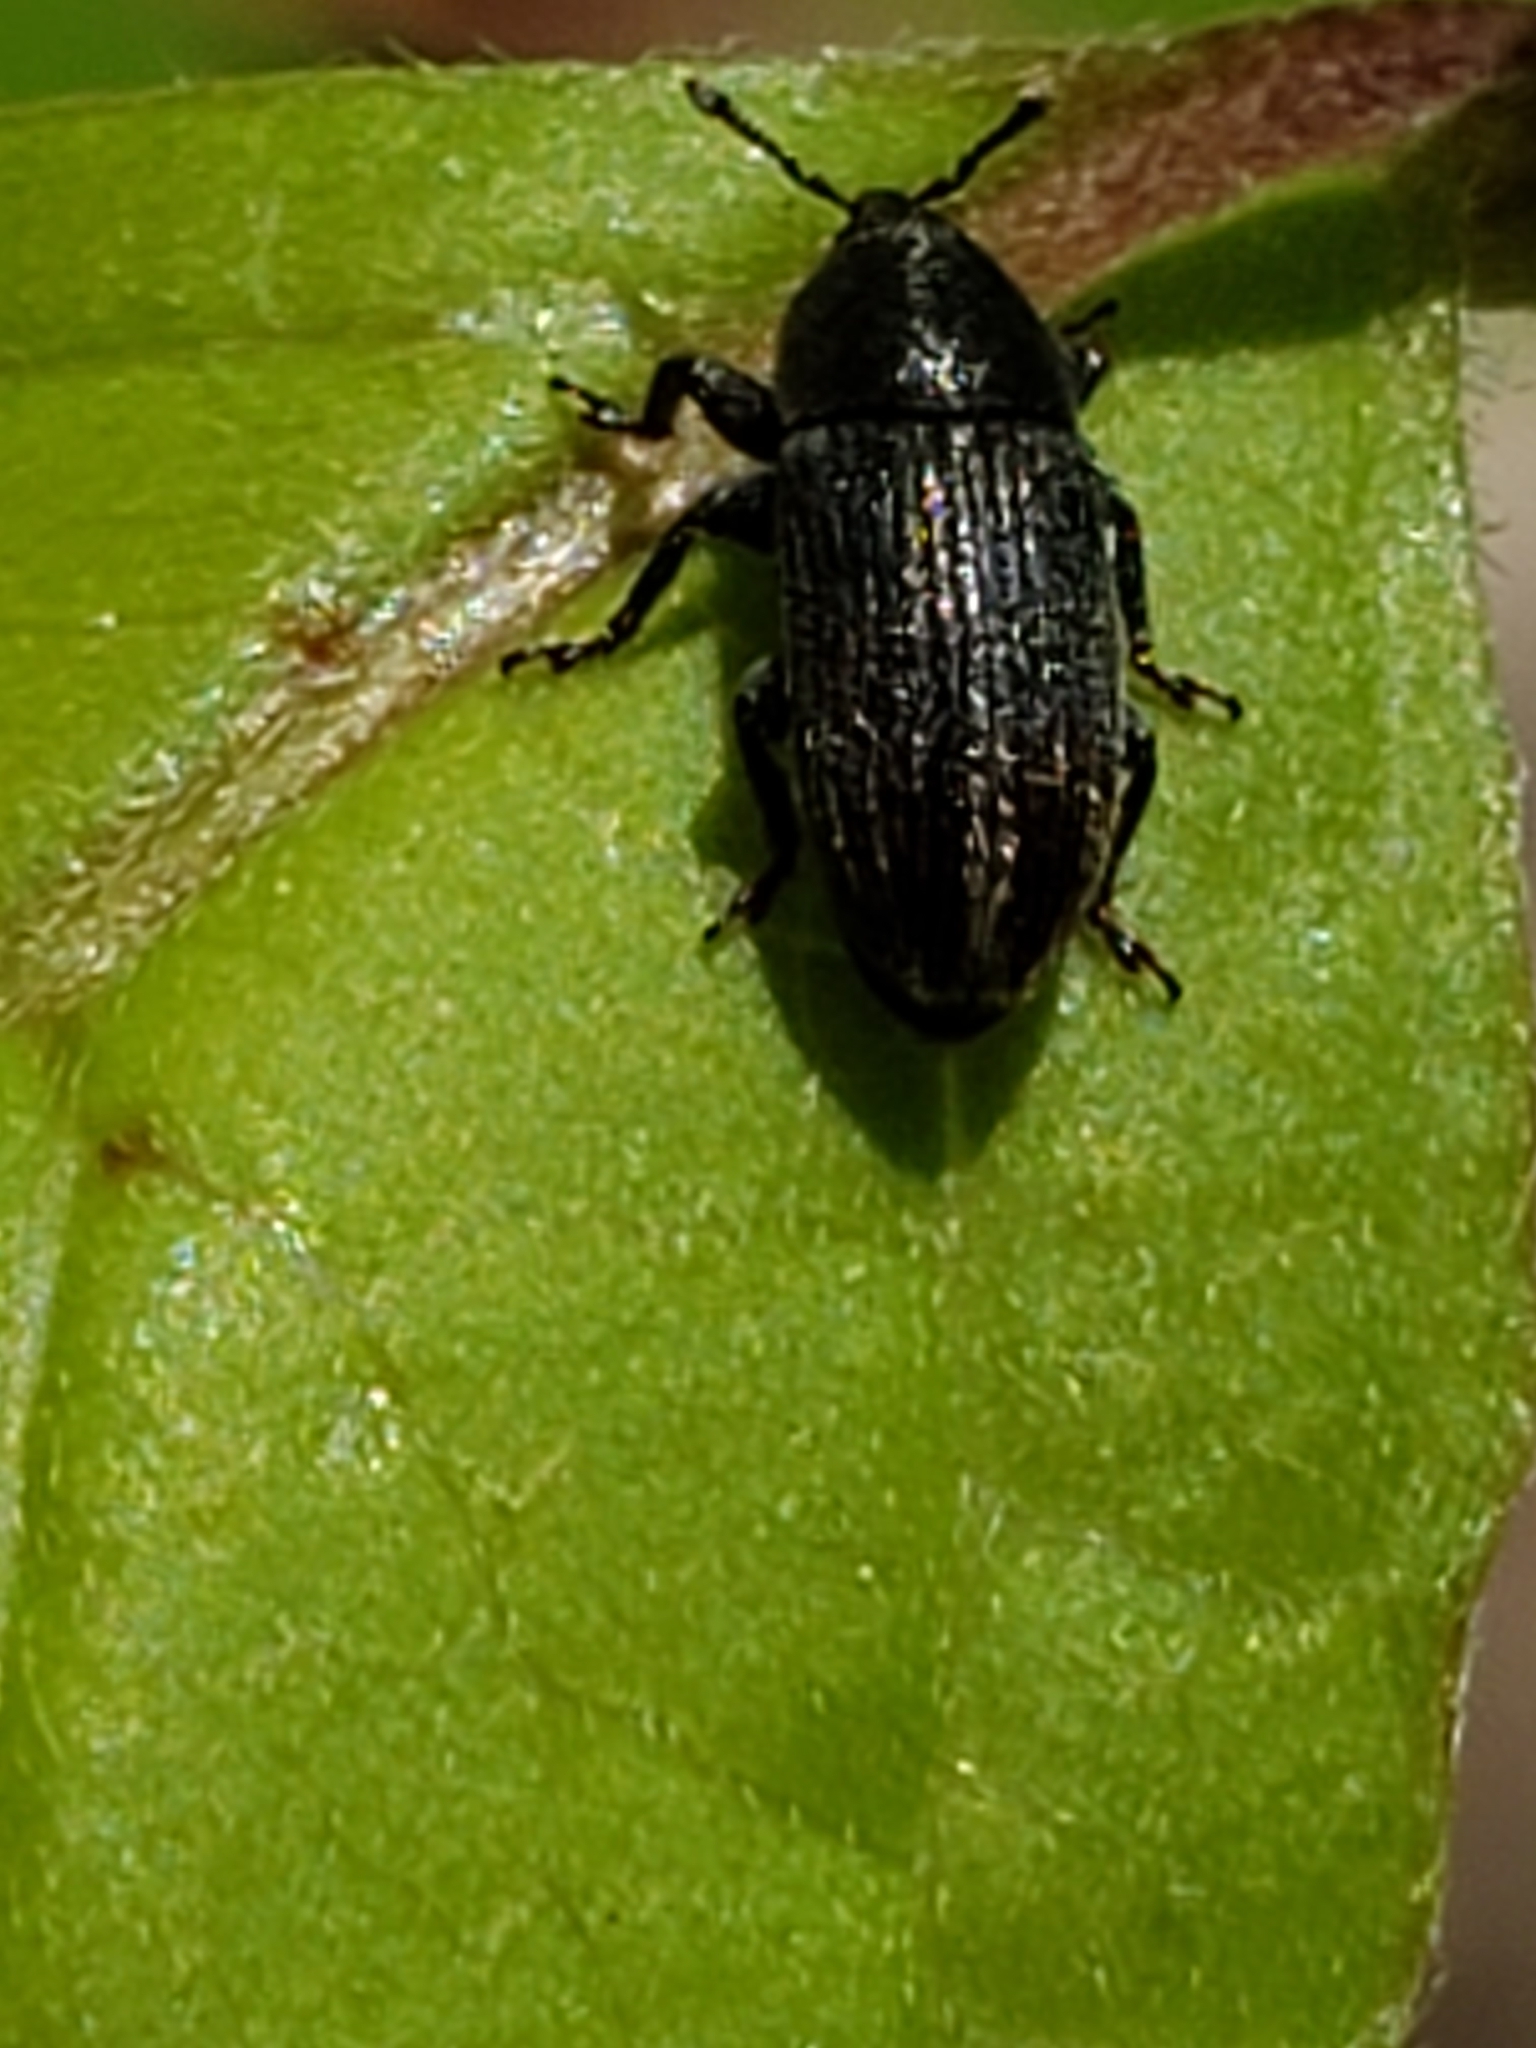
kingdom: Animalia
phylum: Arthropoda
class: Insecta
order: Coleoptera
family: Curculionidae
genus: Mecinus
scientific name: Mecinus pyraster
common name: Weevil
